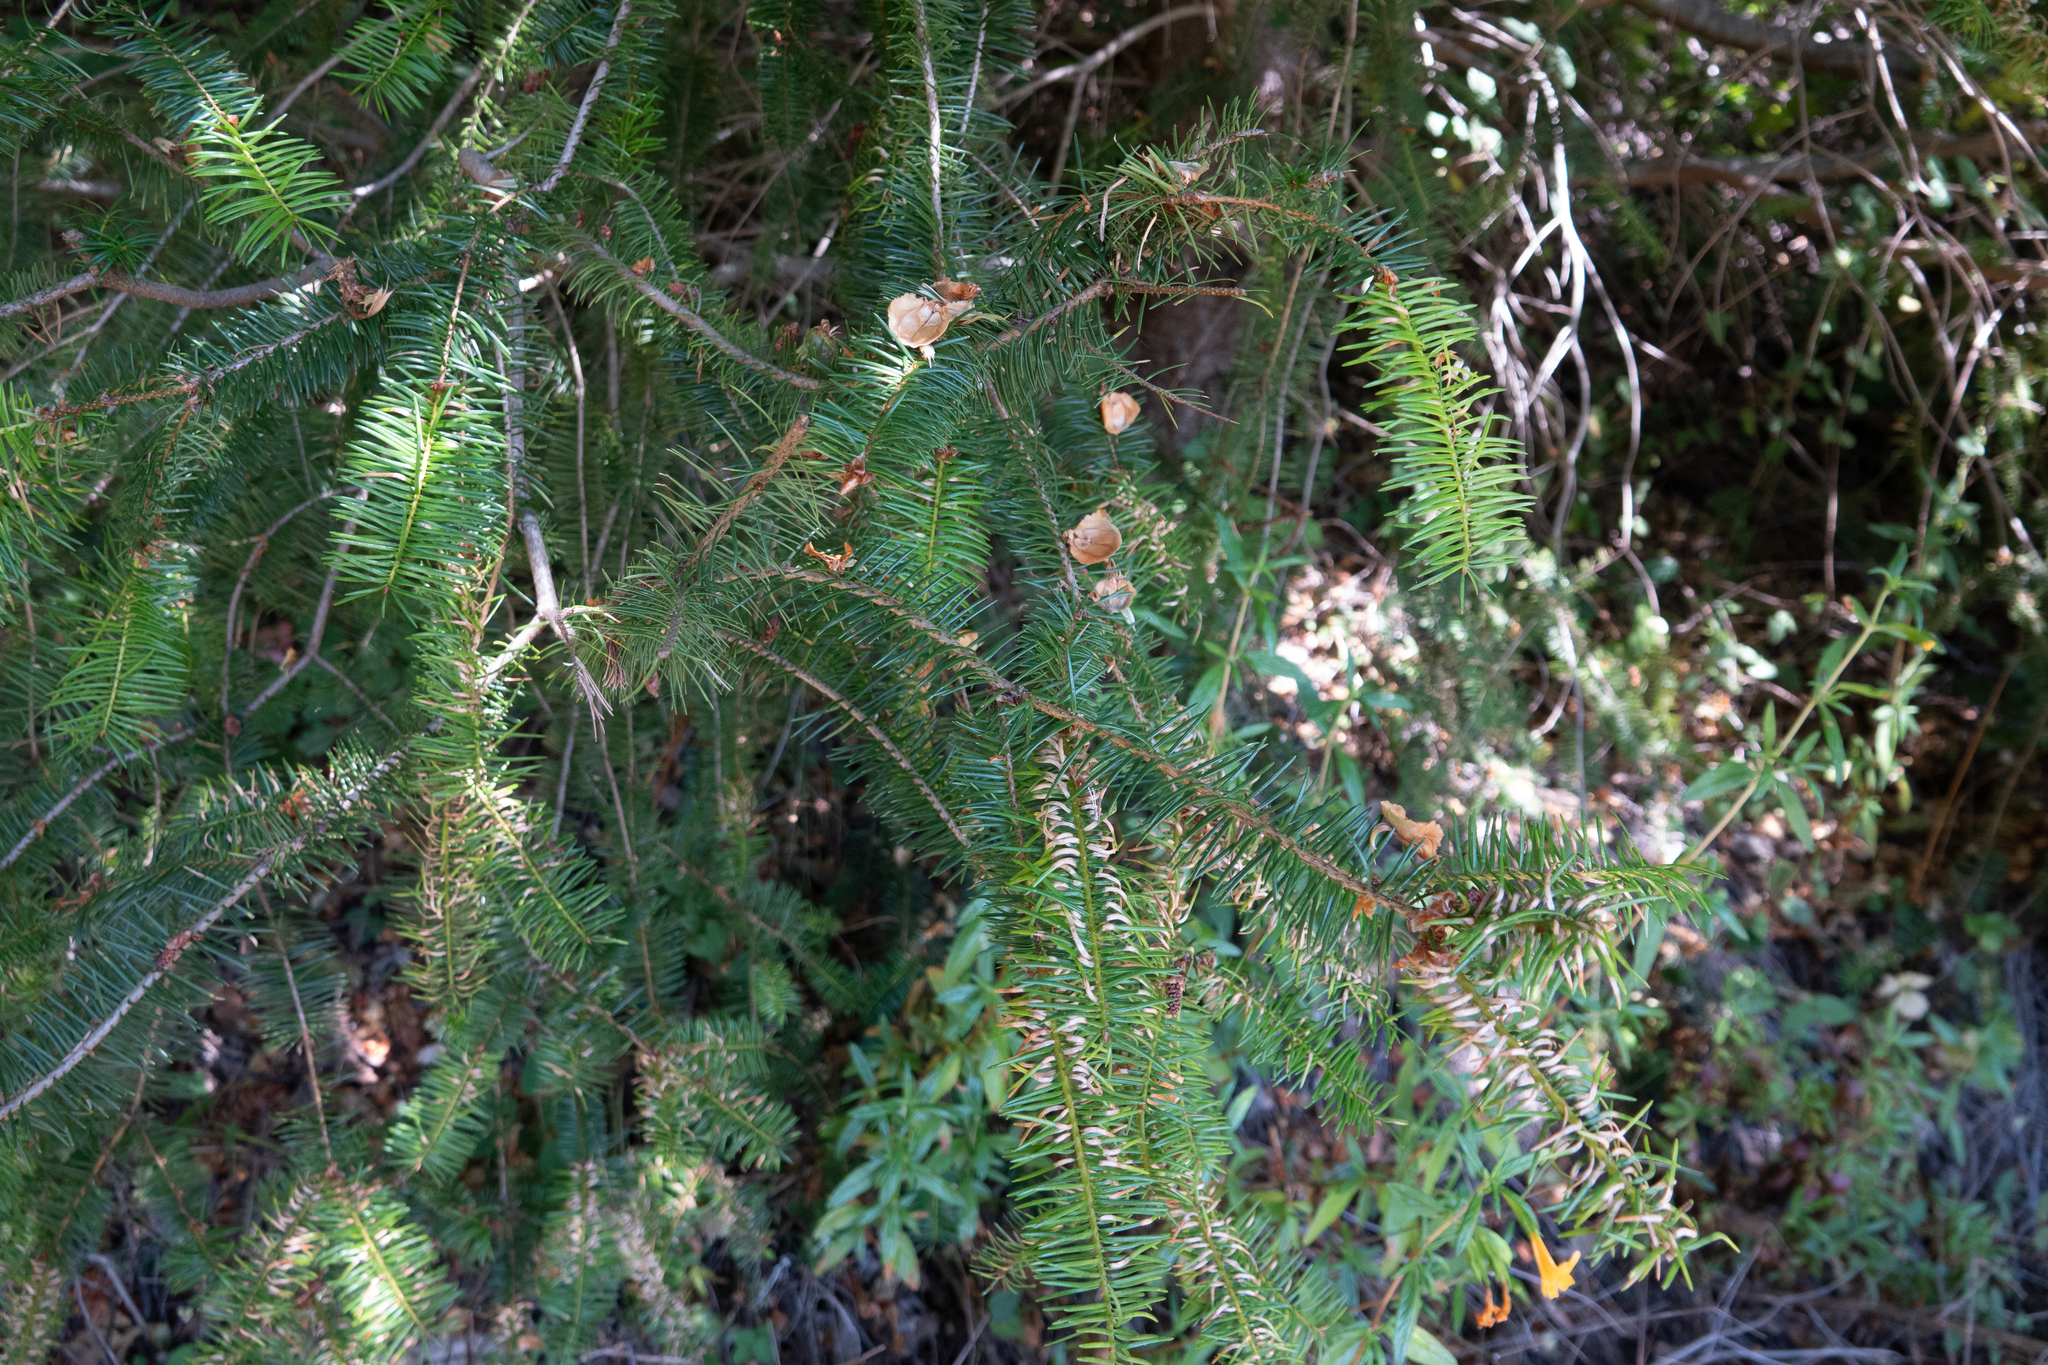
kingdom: Plantae
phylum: Tracheophyta
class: Pinopsida
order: Pinales
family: Pinaceae
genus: Pseudotsuga
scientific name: Pseudotsuga menziesii
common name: Douglas fir
